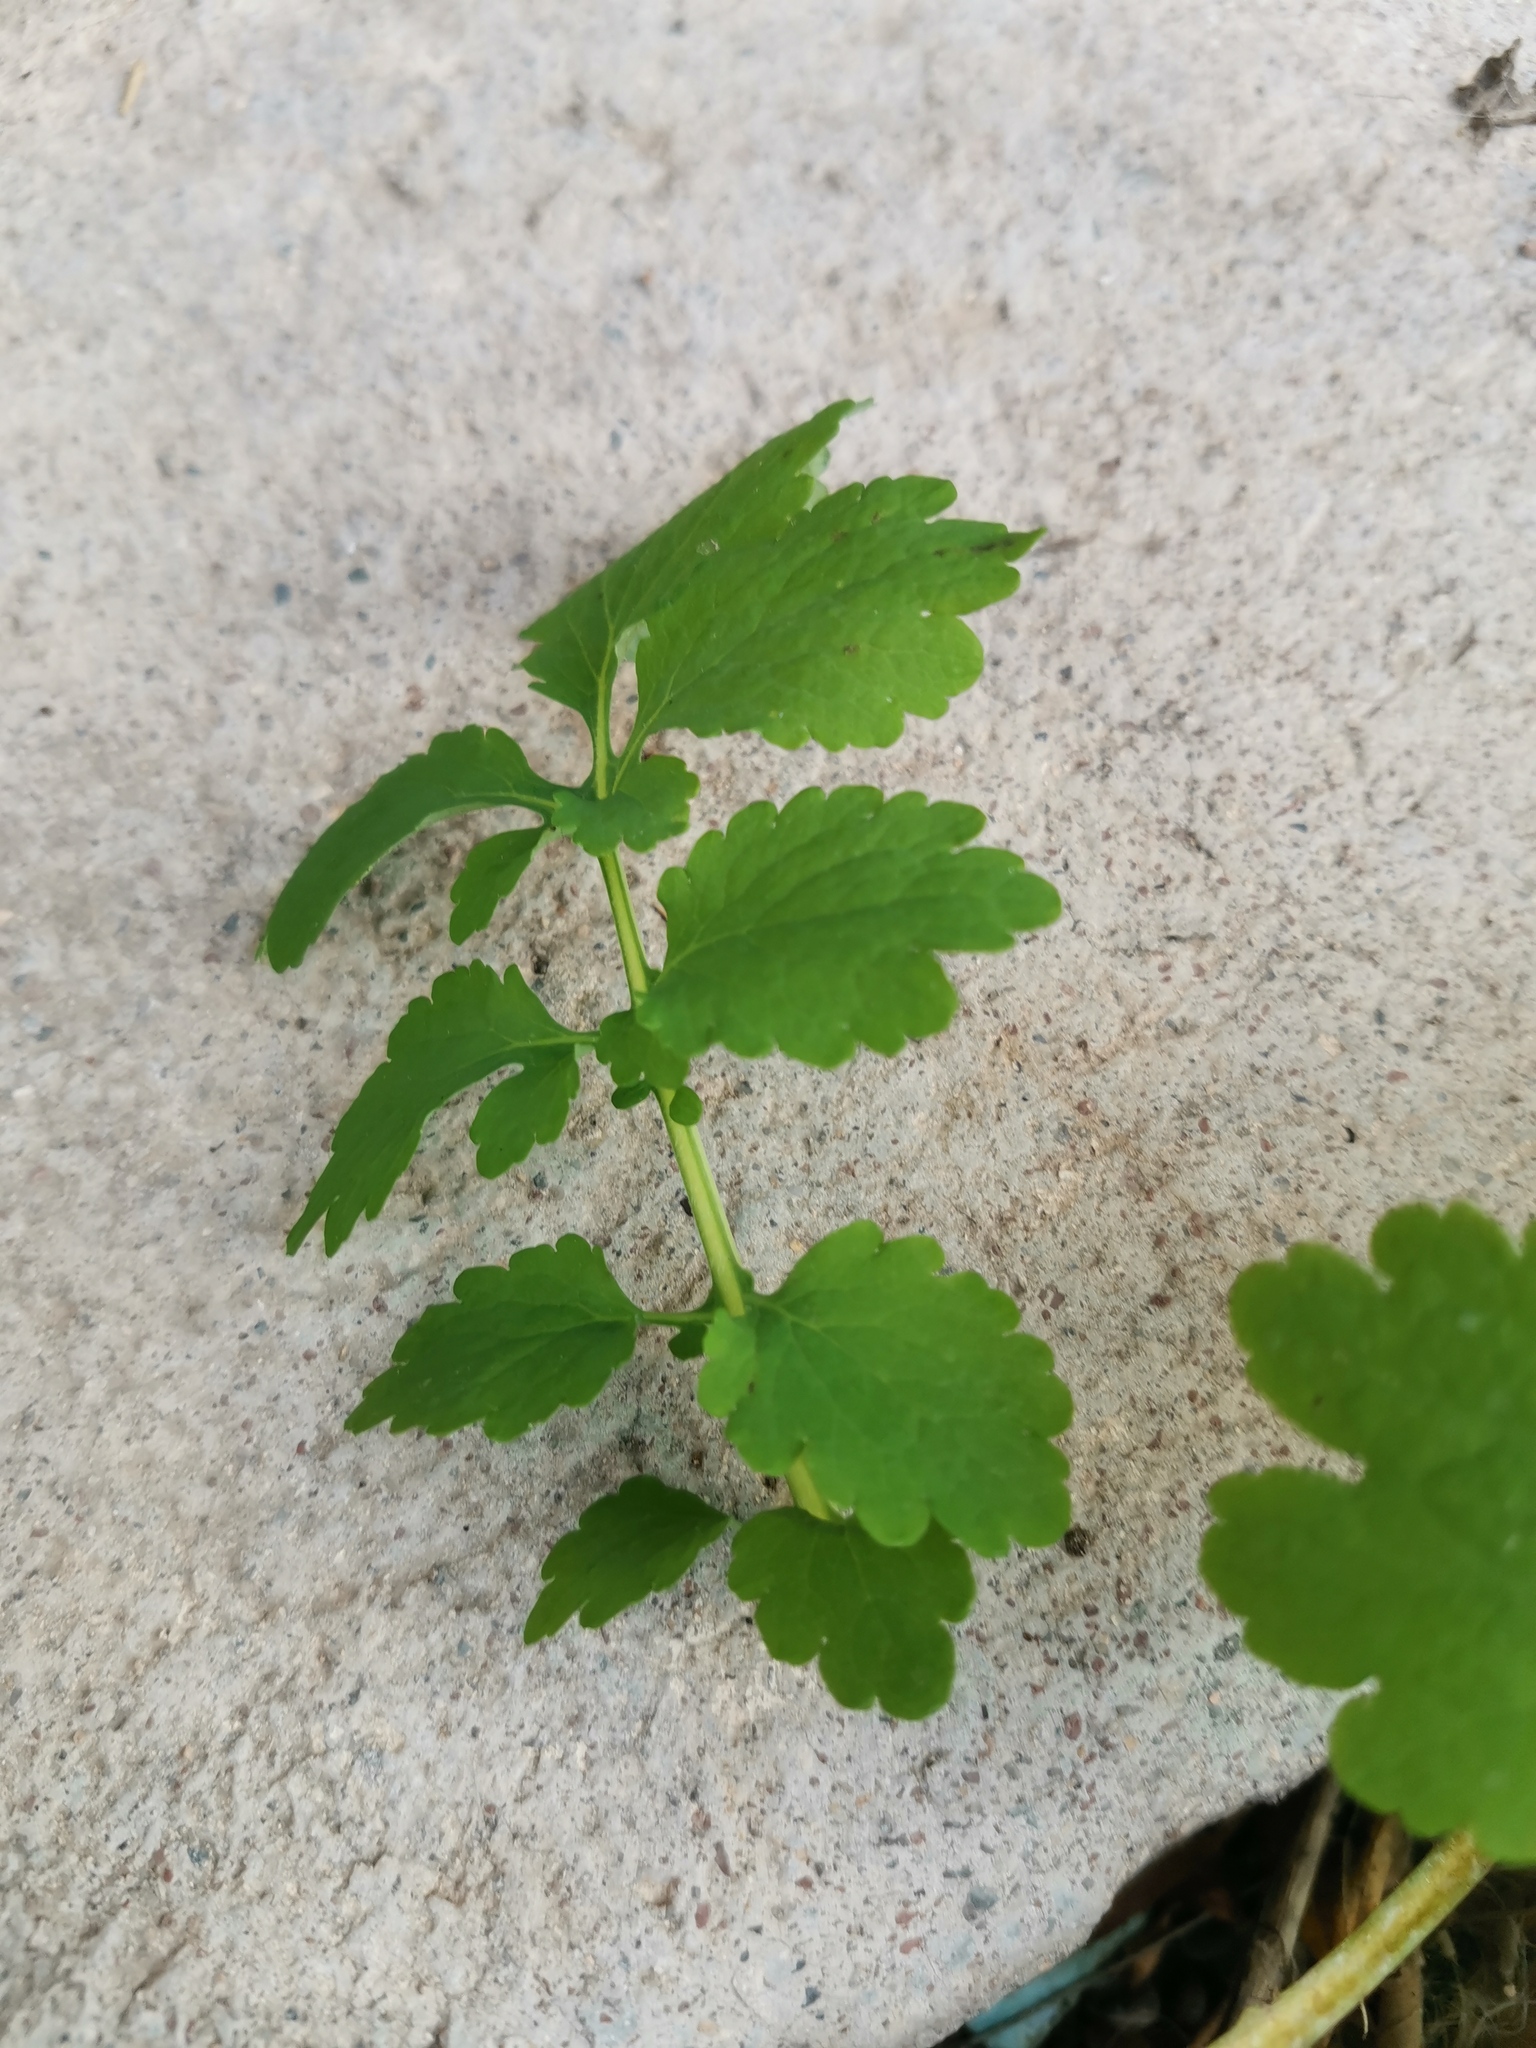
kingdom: Plantae
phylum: Tracheophyta
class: Magnoliopsida
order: Ranunculales
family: Papaveraceae
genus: Chelidonium
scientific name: Chelidonium majus
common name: Greater celandine
